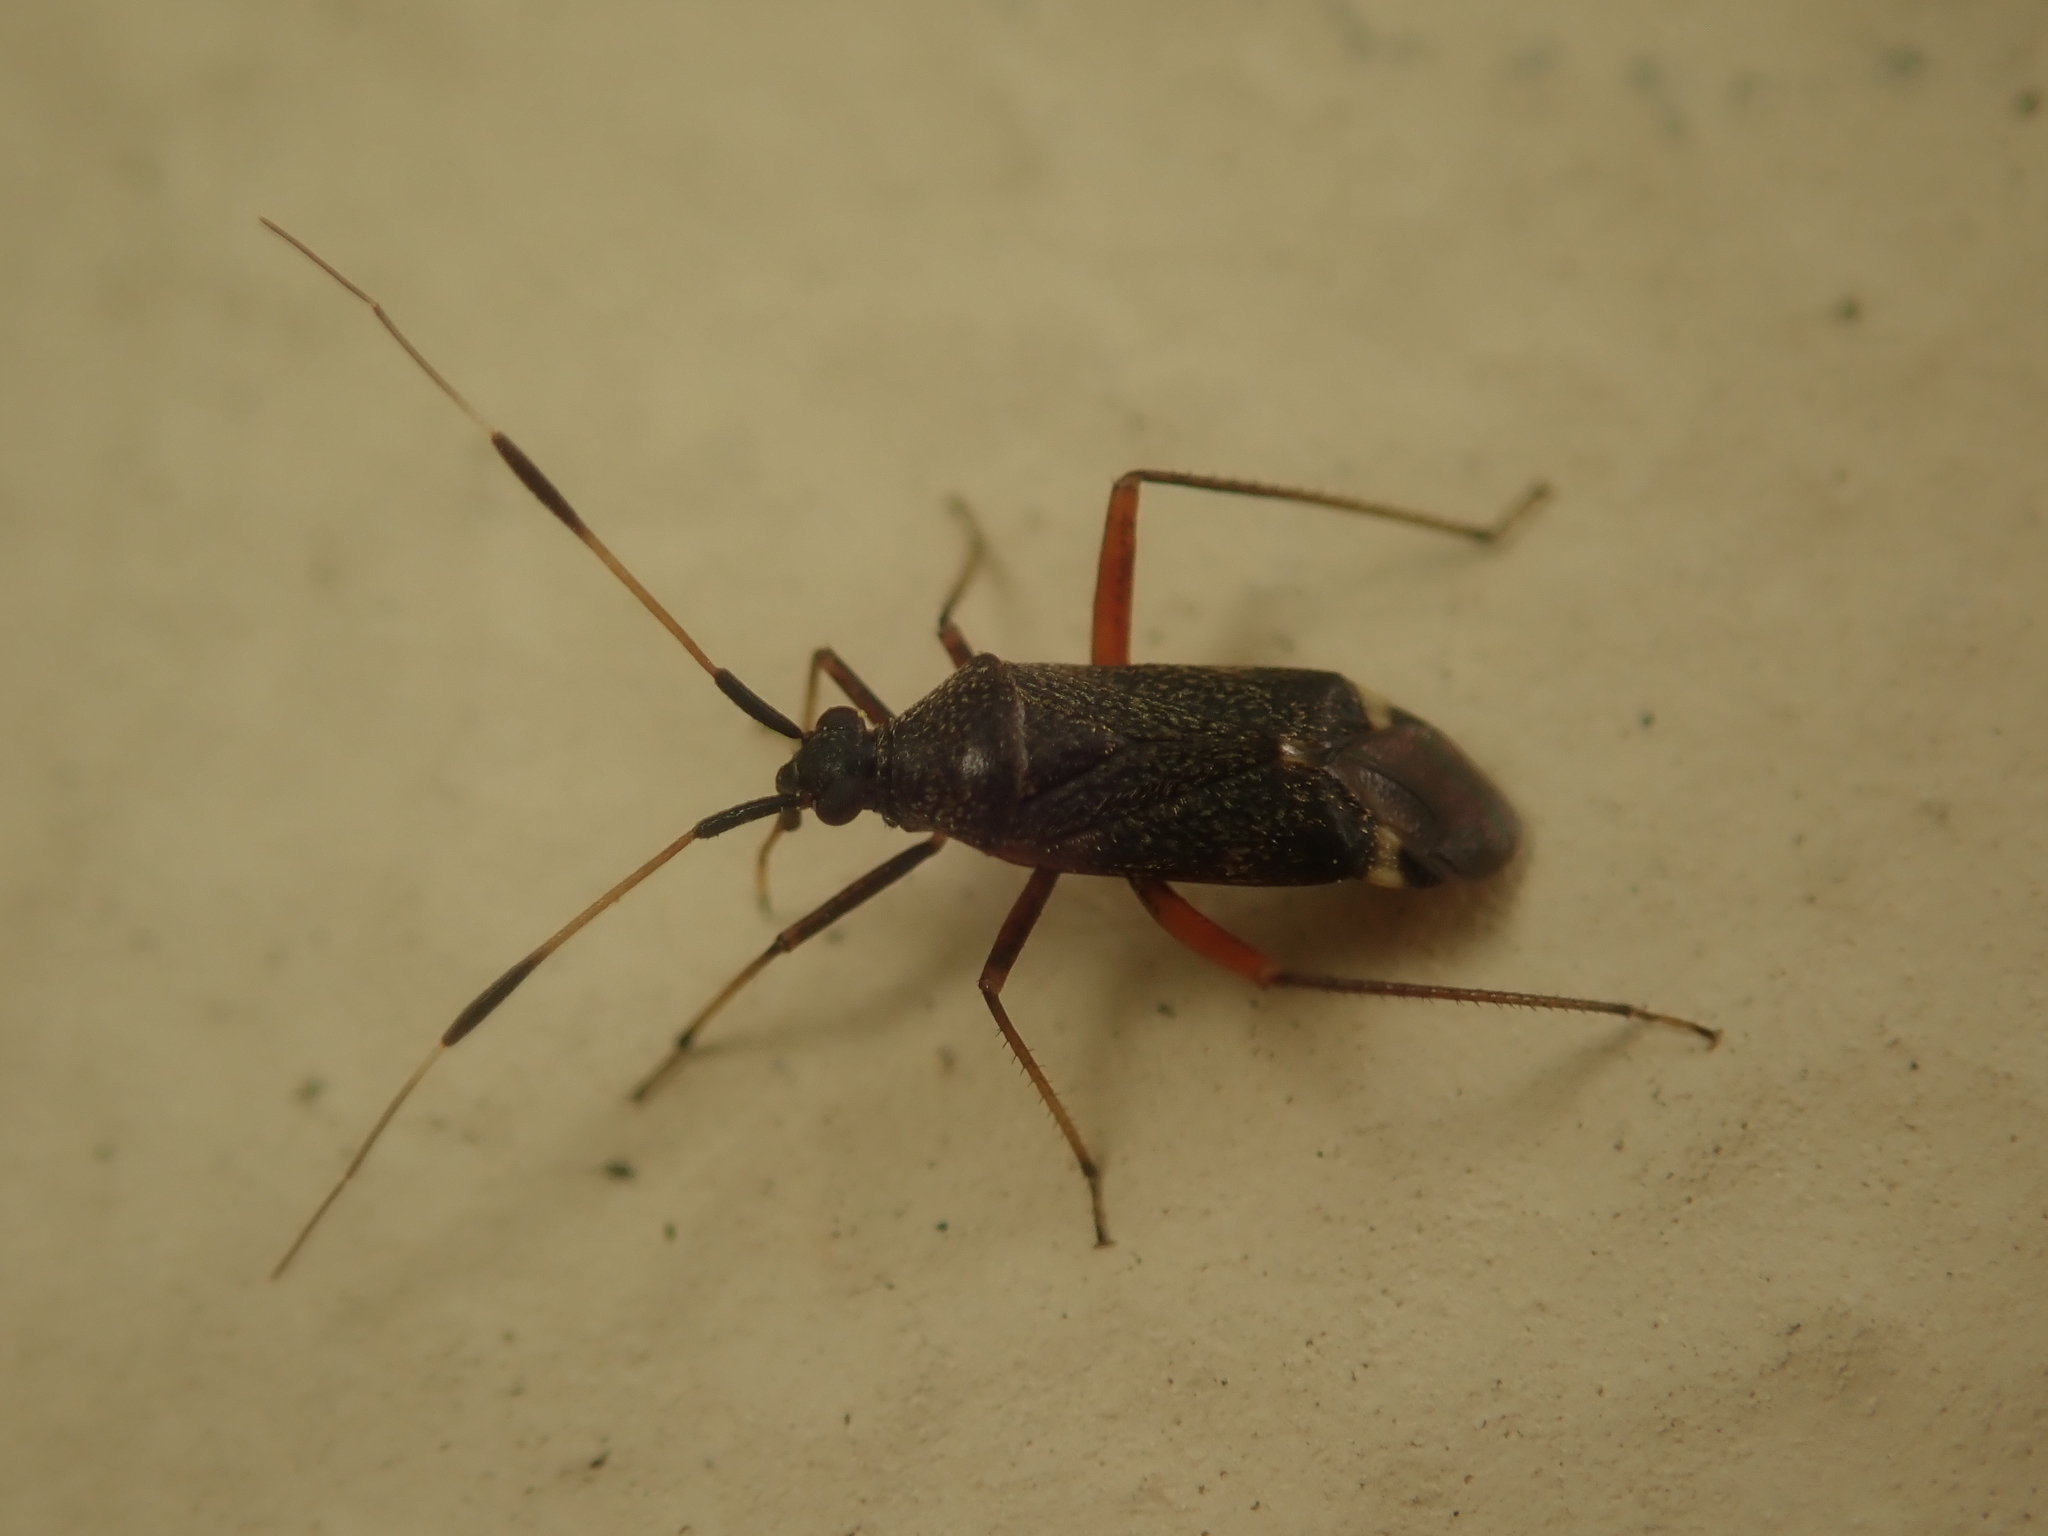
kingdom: Animalia
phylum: Arthropoda
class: Insecta
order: Hemiptera
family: Miridae
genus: Closterotomus
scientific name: Closterotomus biclavatus
